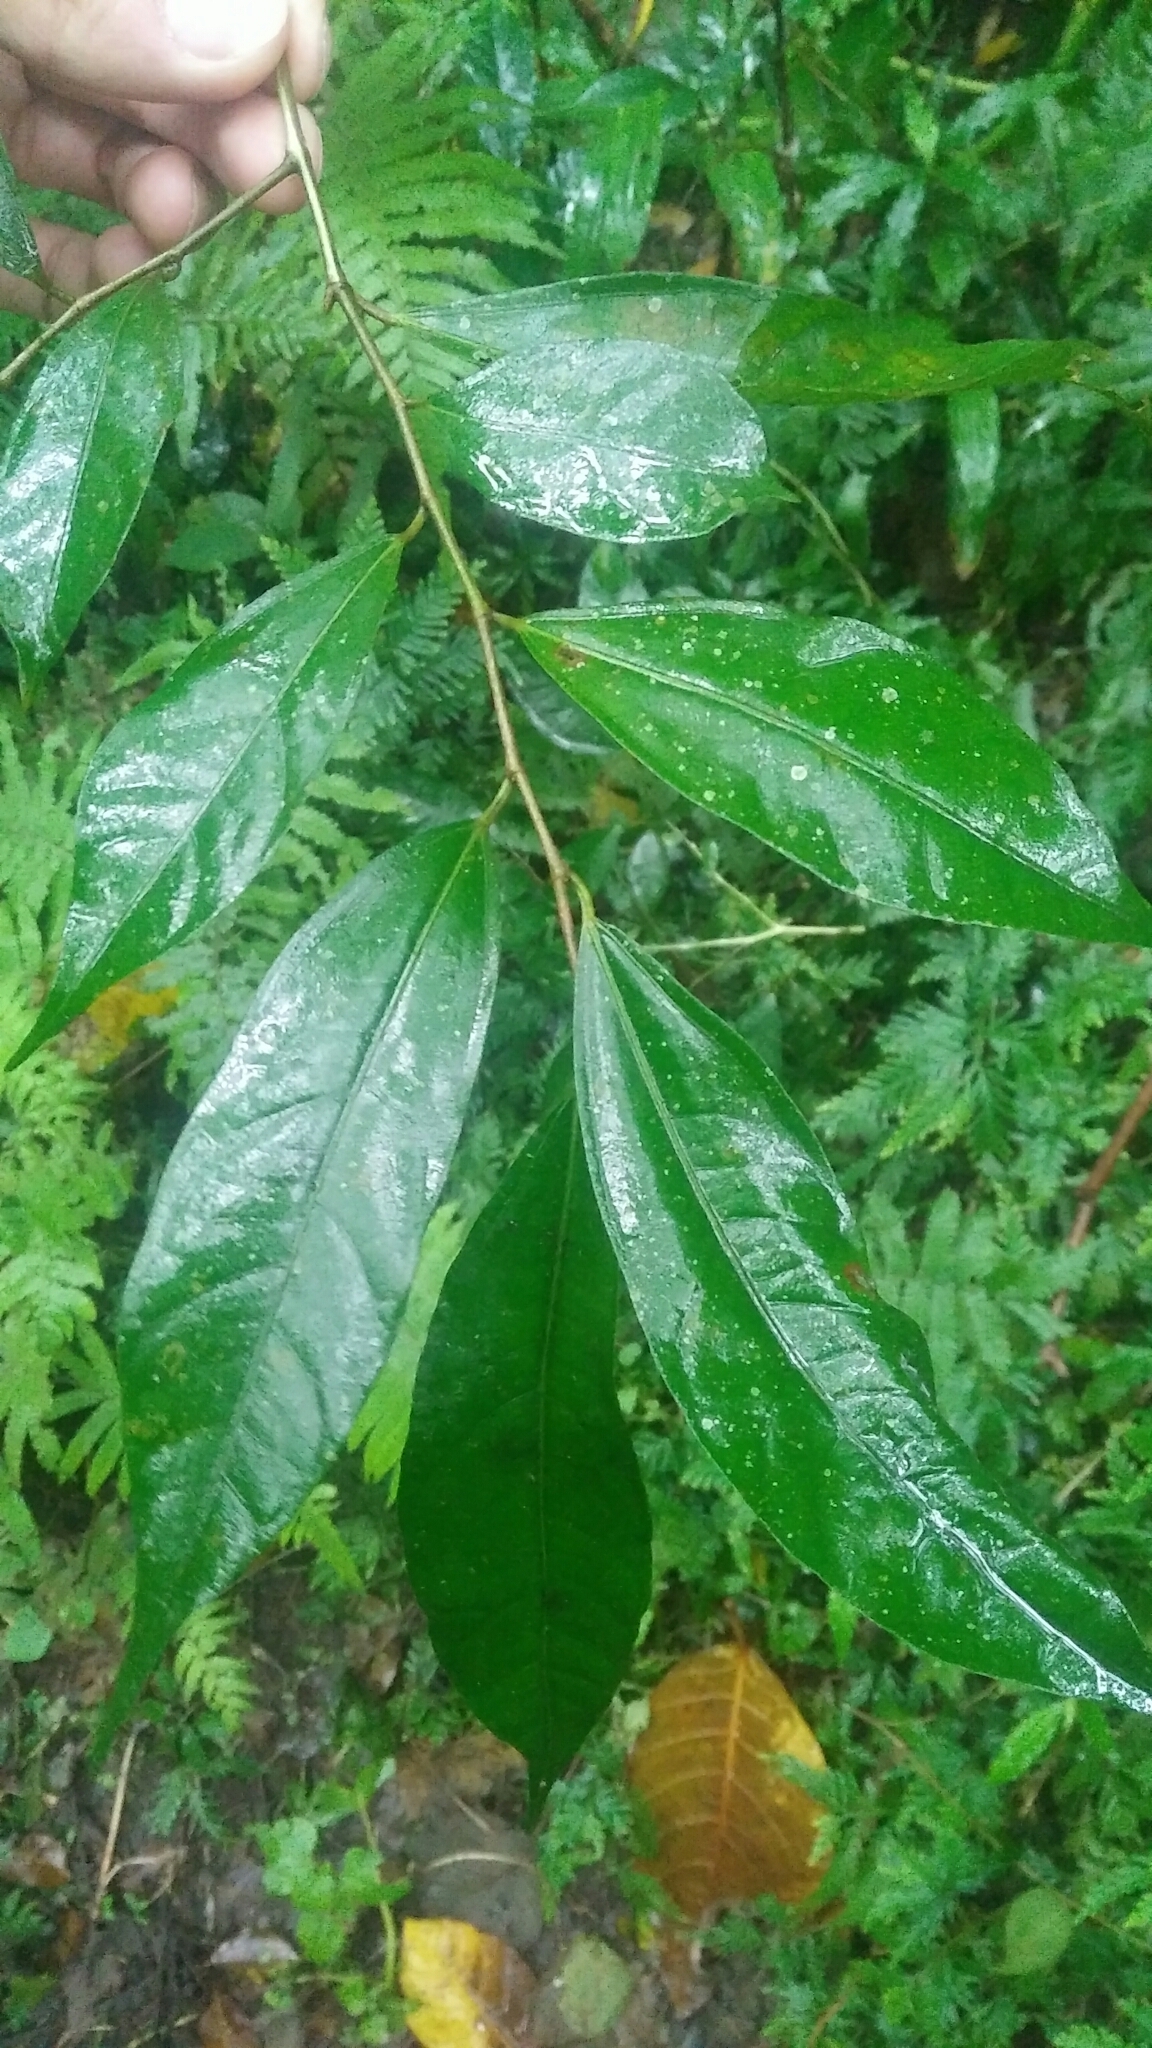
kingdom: Plantae
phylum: Tracheophyta
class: Magnoliopsida
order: Rosales
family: Moraceae
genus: Ficus
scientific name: Ficus ampelos
